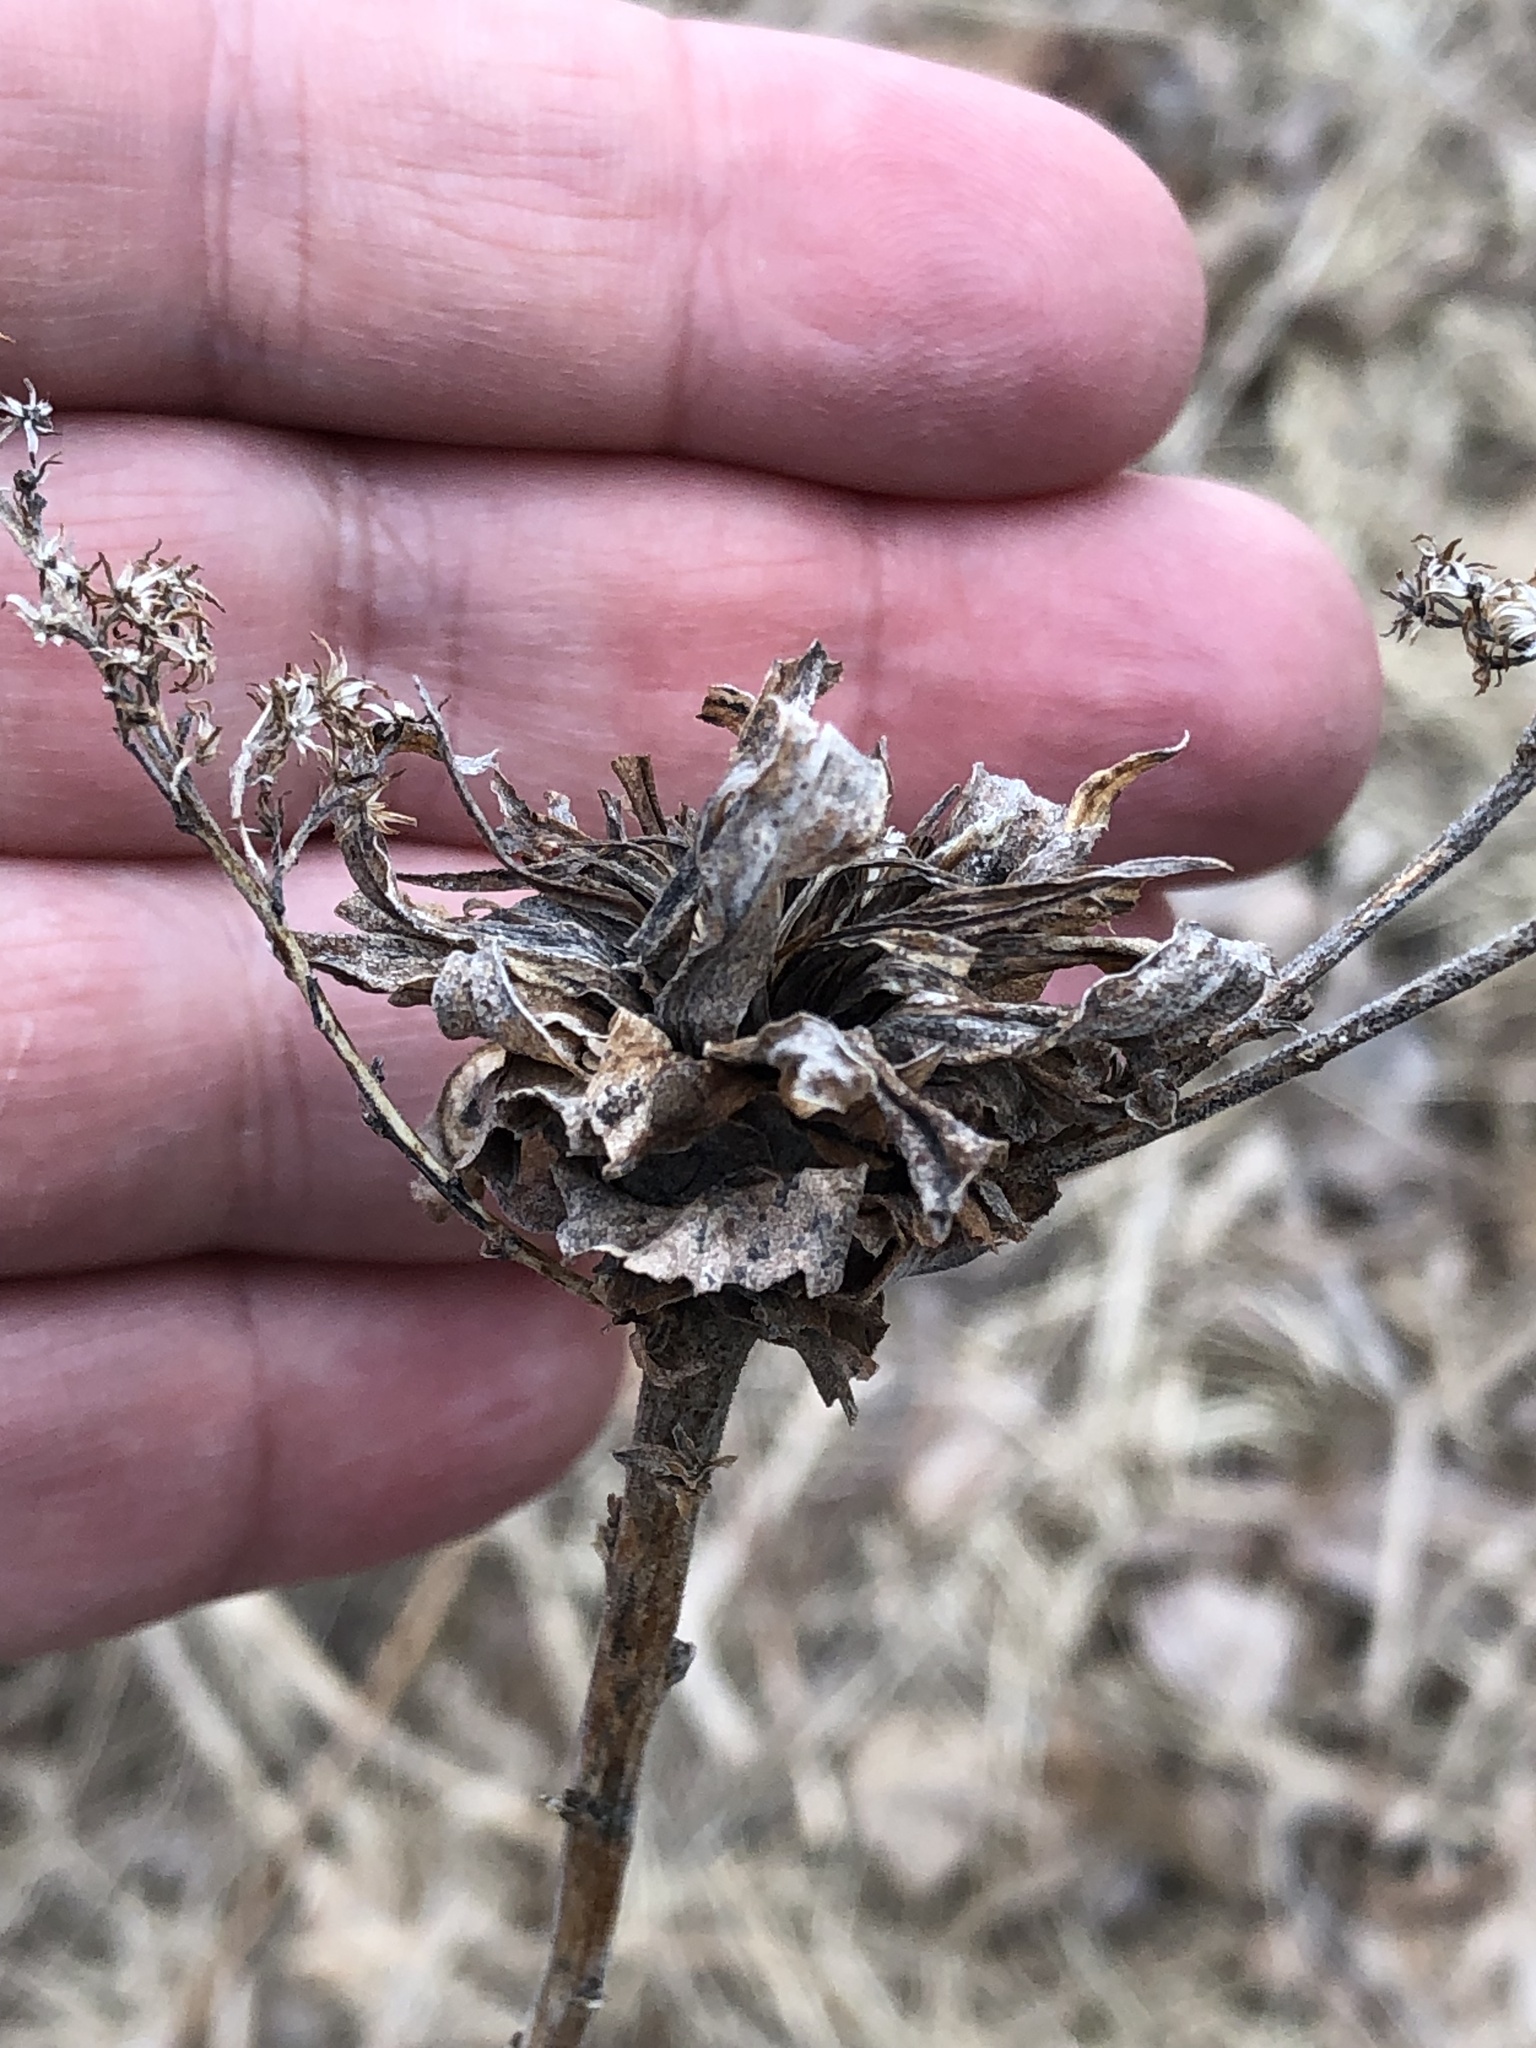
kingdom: Animalia
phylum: Arthropoda
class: Insecta
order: Diptera
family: Cecidomyiidae
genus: Rhopalomyia
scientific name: Rhopalomyia solidaginis
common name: Goldenrod bunch gall midge
